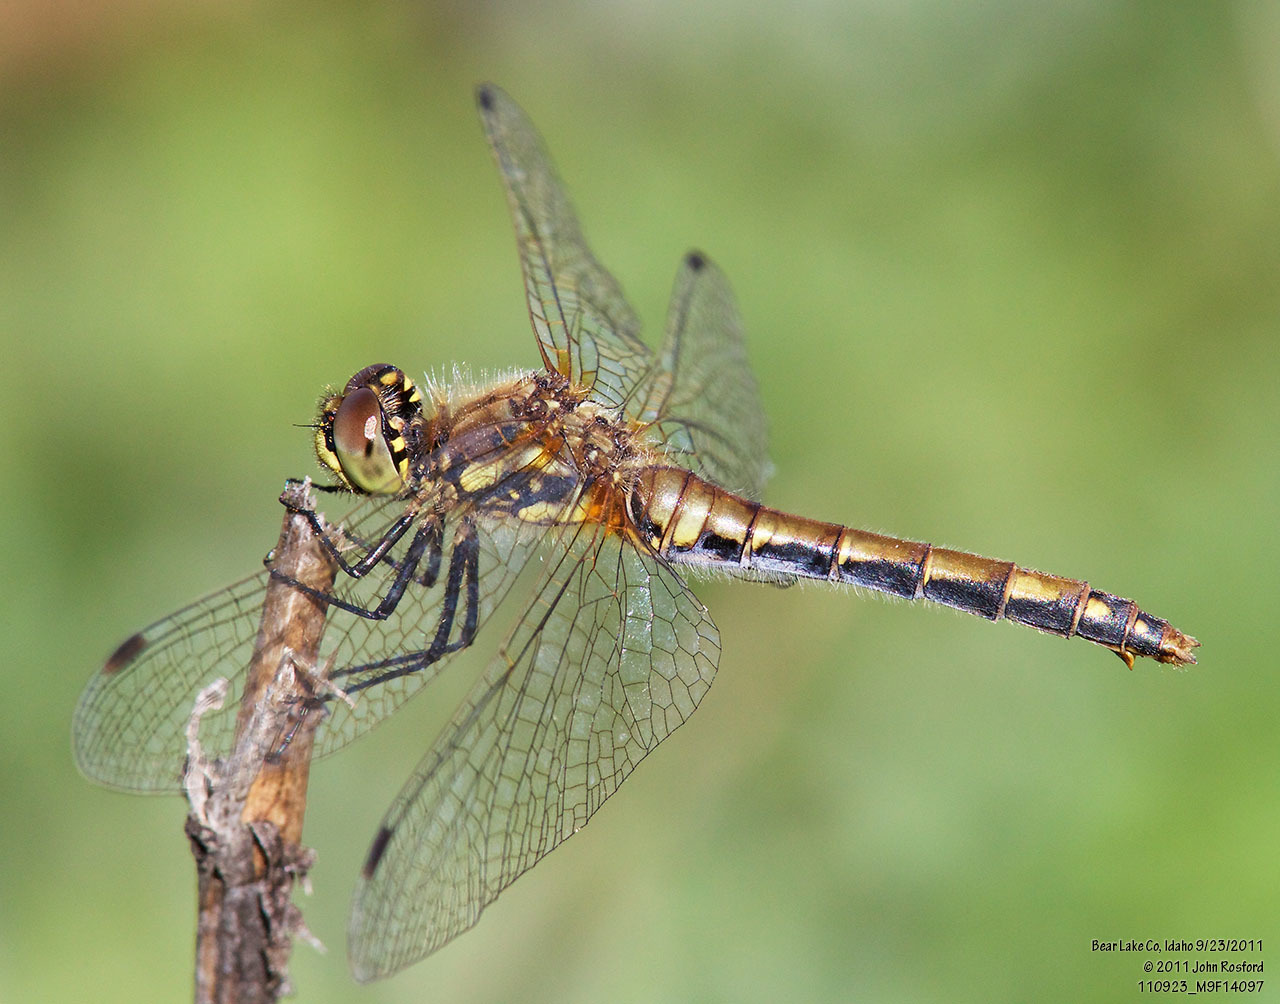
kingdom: Animalia
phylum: Arthropoda
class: Insecta
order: Odonata
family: Libellulidae
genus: Sympetrum
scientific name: Sympetrum danae
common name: Black darter
